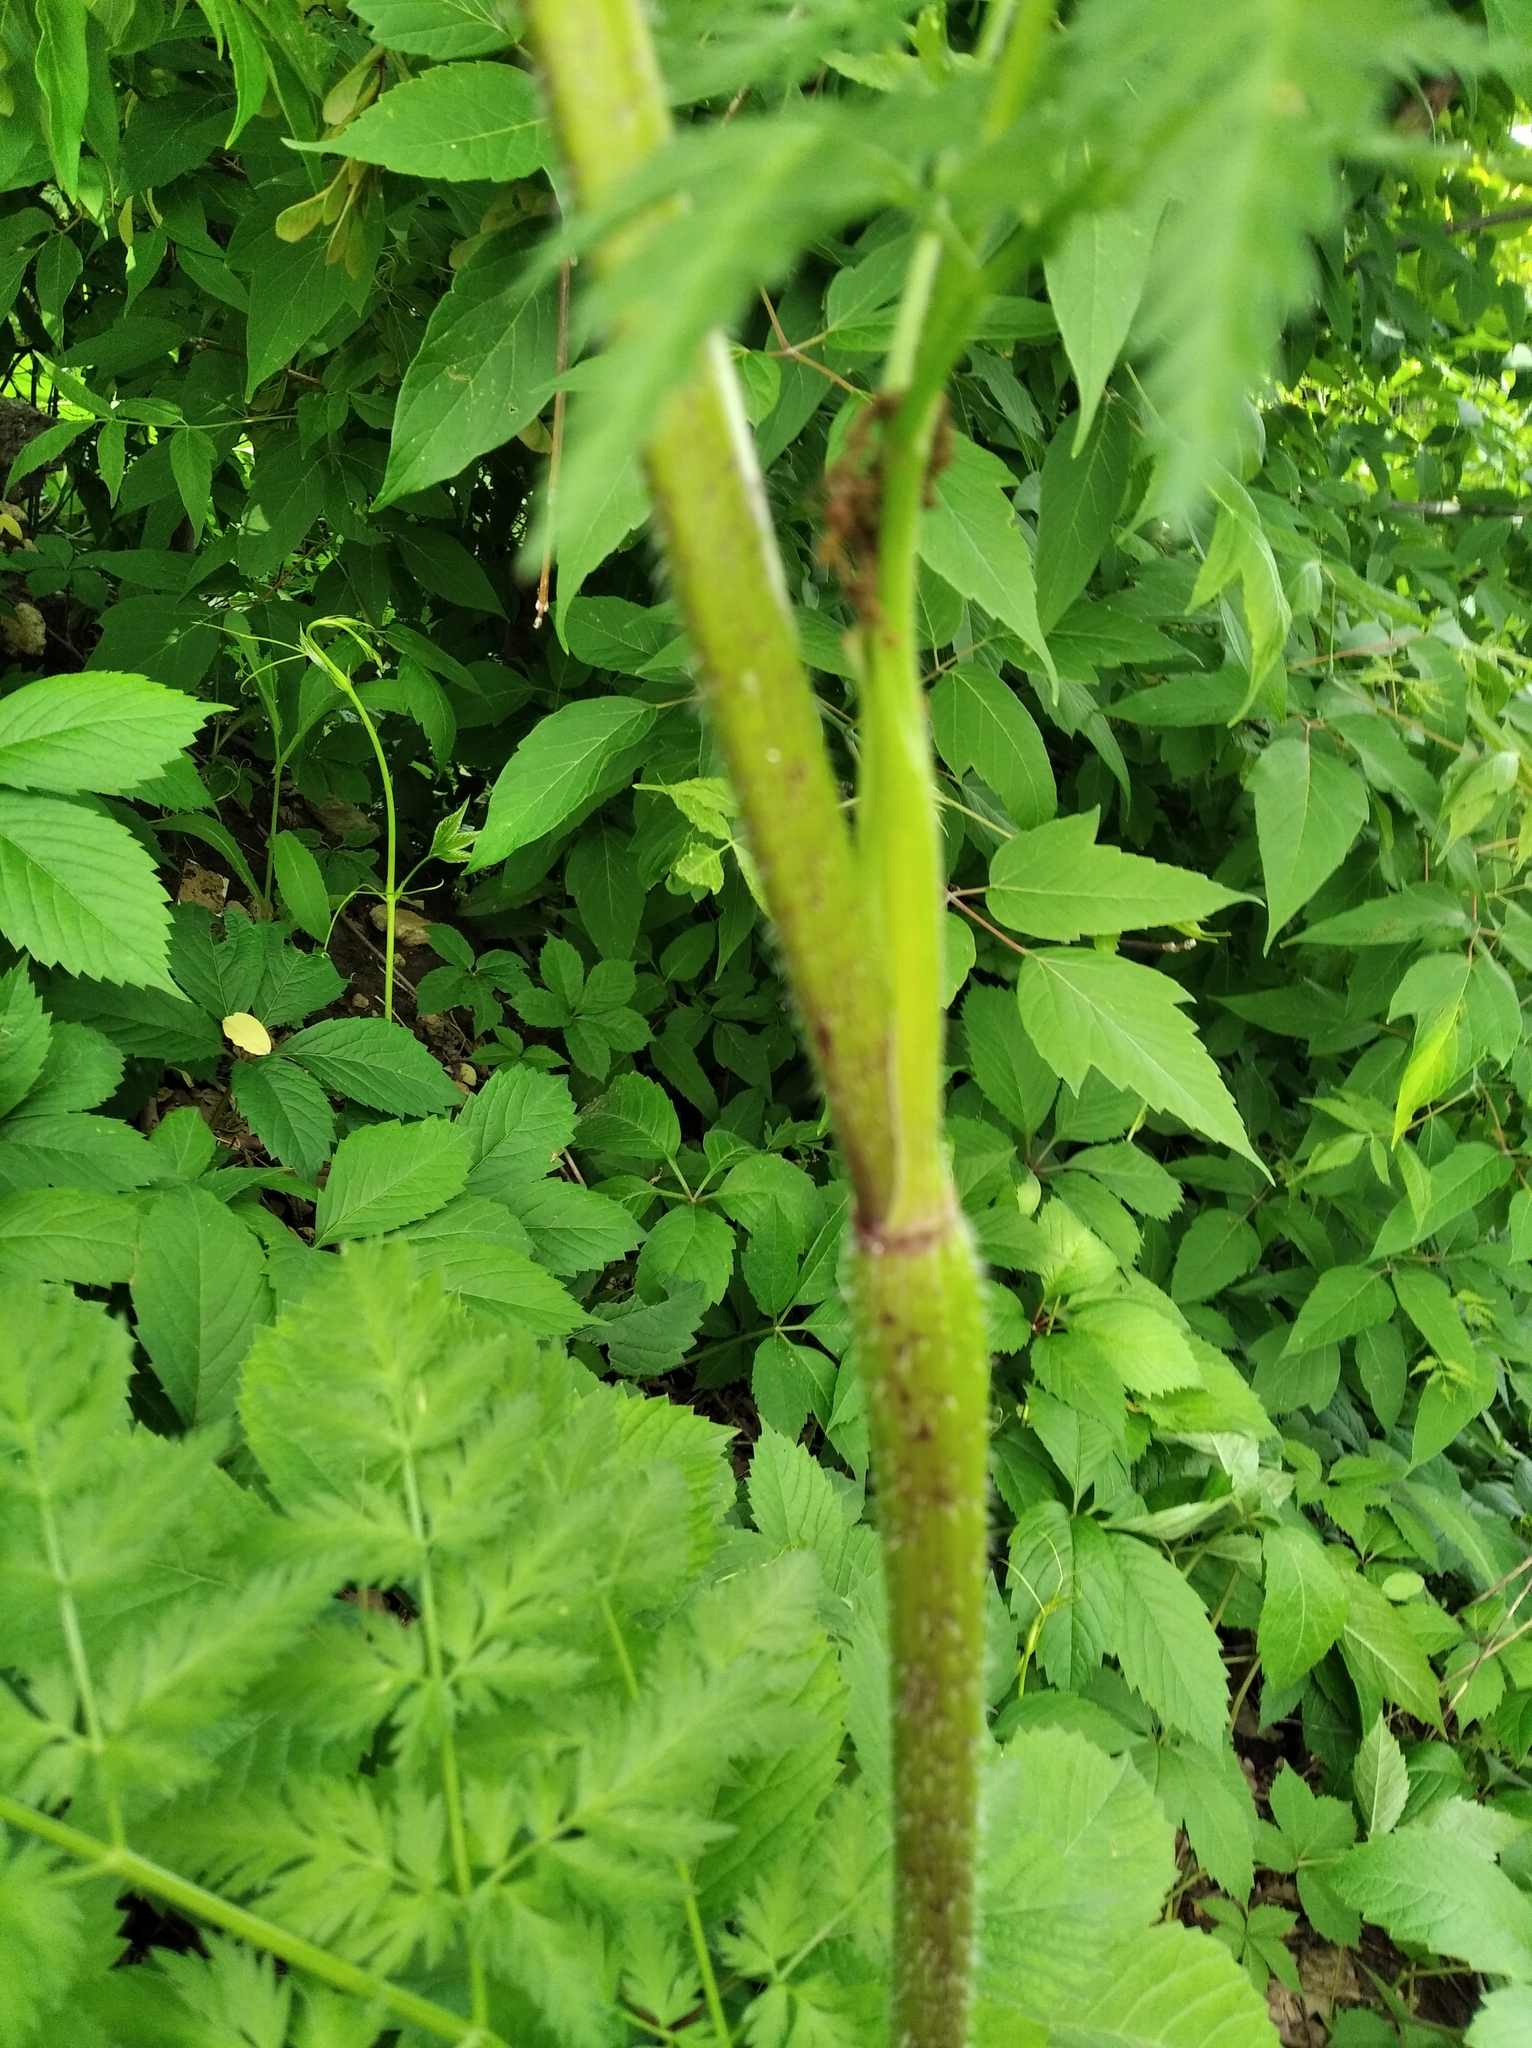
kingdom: Plantae
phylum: Tracheophyta
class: Magnoliopsida
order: Apiales
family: Apiaceae
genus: Chaerophyllum
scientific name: Chaerophyllum prescottii
